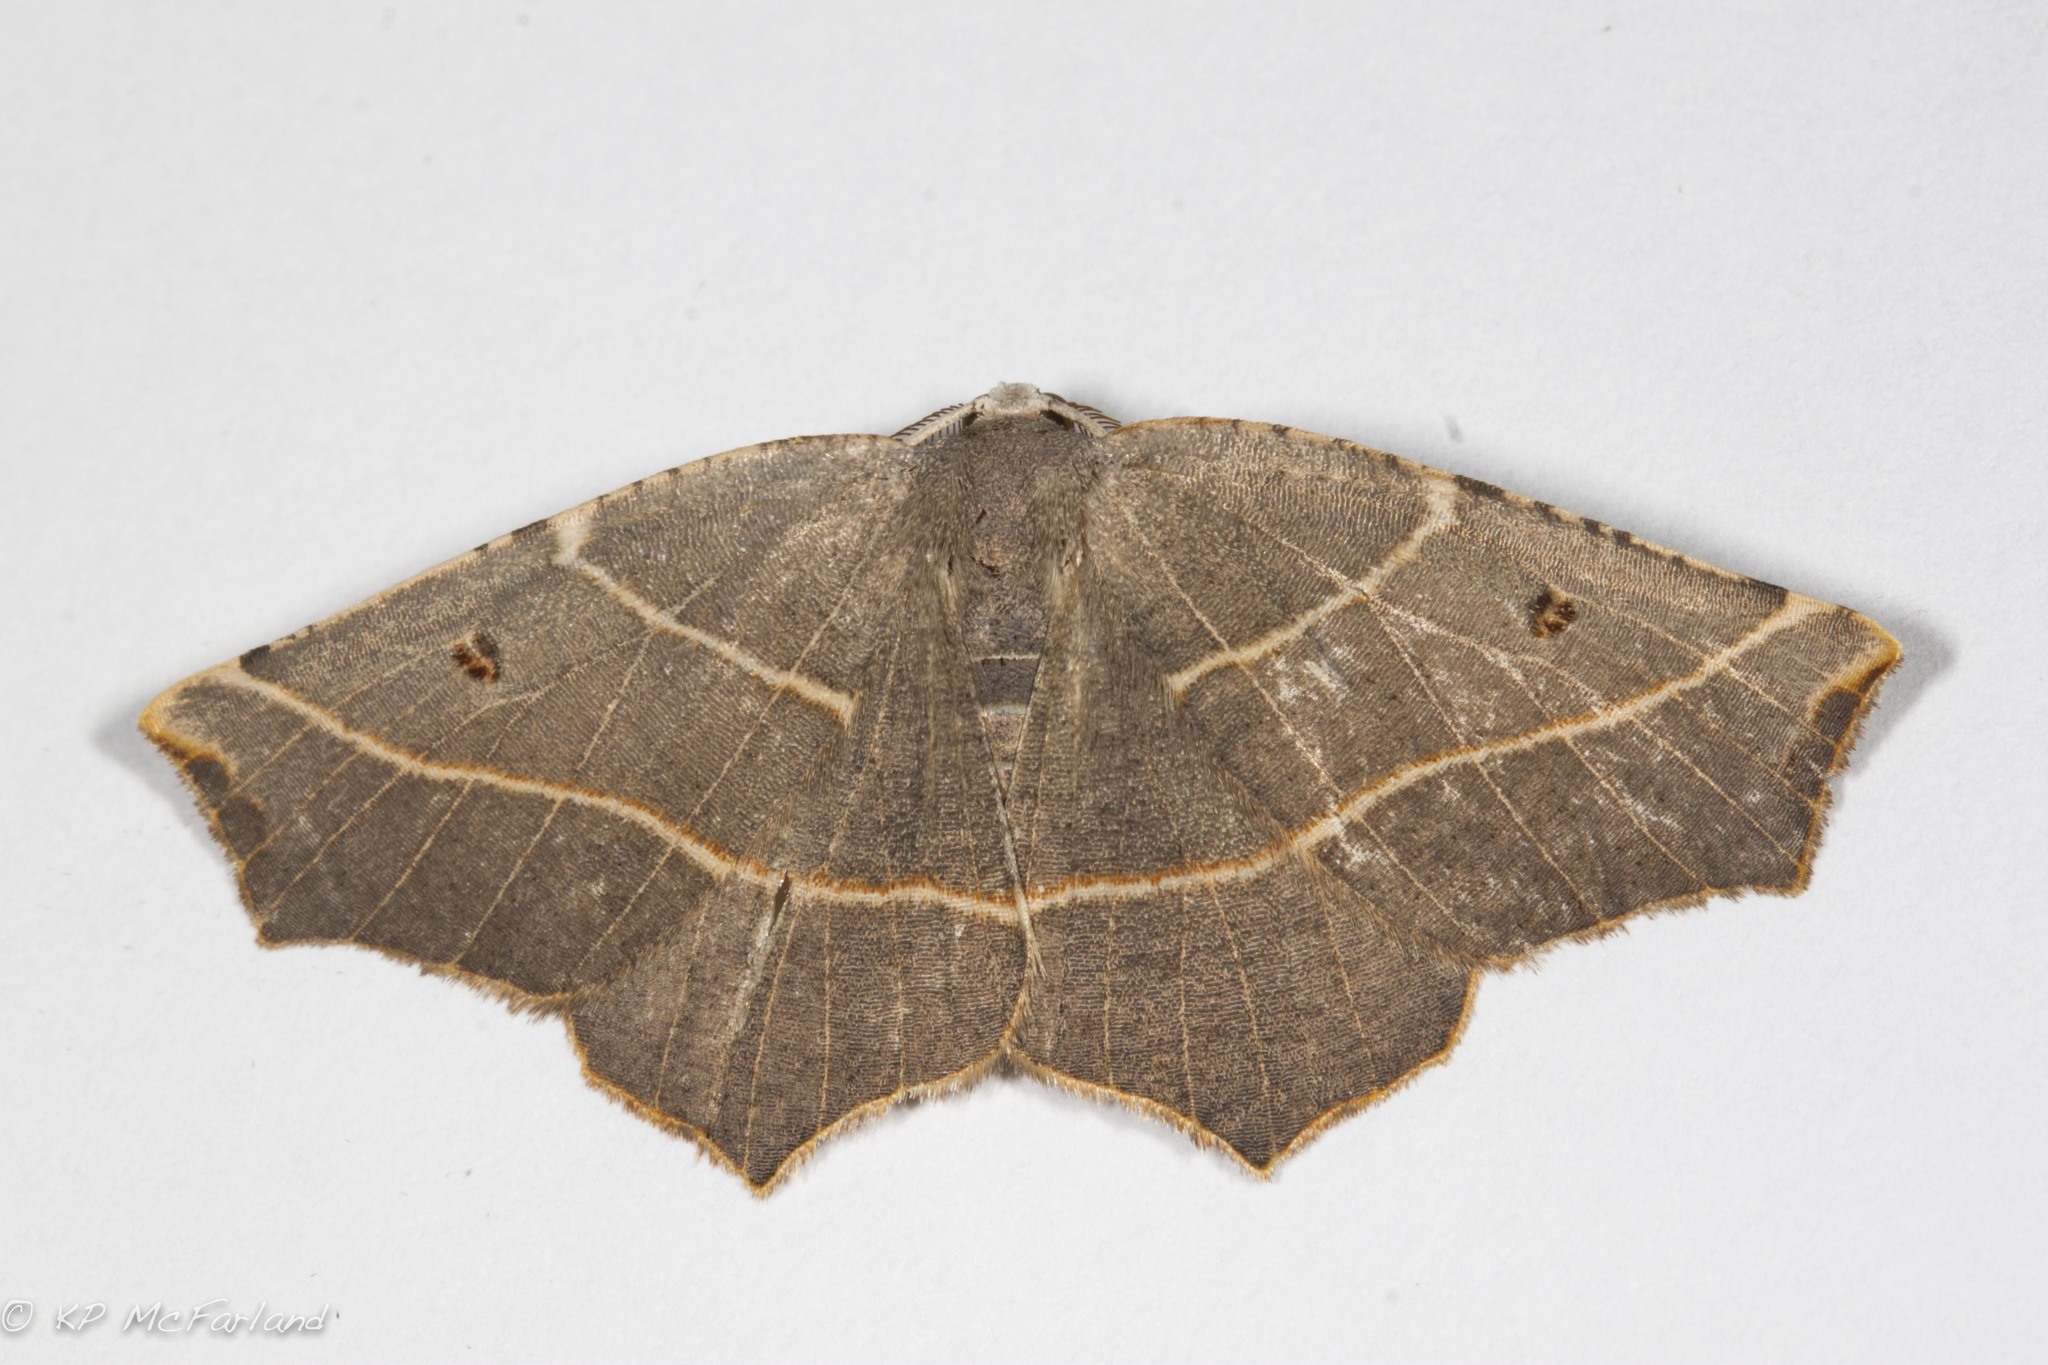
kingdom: Animalia
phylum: Arthropoda
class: Insecta
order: Lepidoptera
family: Geometridae
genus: Metanema
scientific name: Metanema inatomaria
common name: Pale metanema
